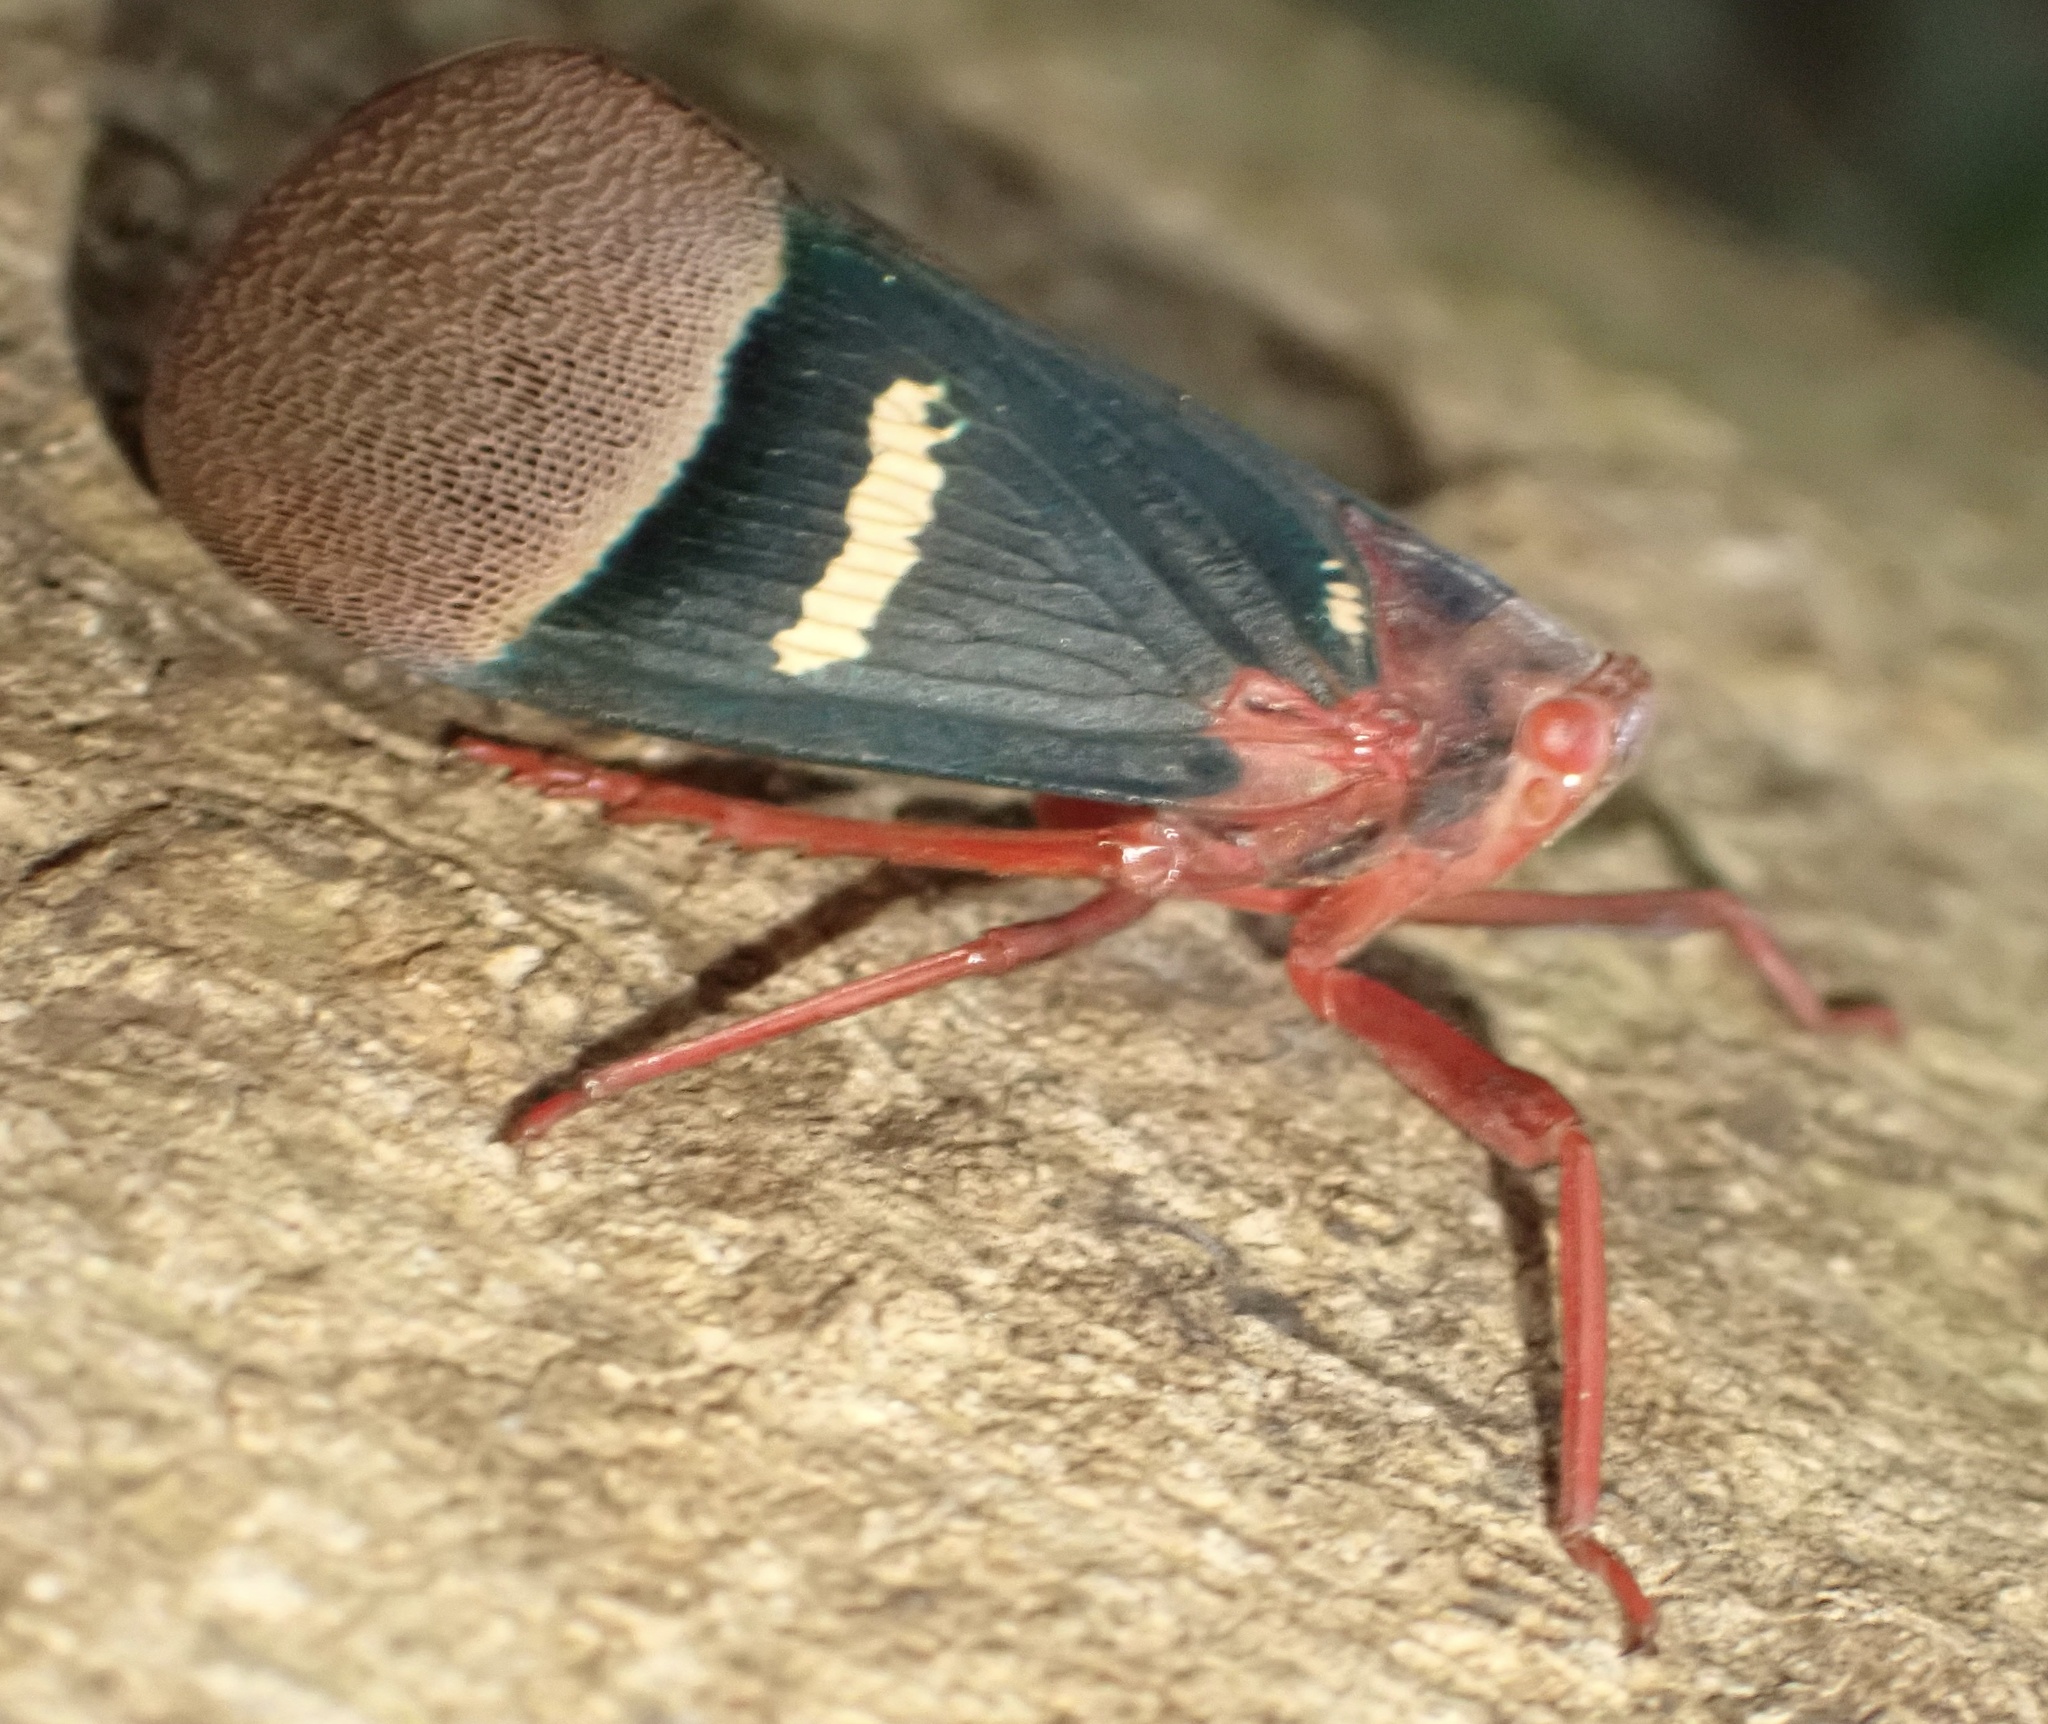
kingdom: Animalia
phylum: Arthropoda
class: Insecta
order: Hemiptera
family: Fulgoridae
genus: Scamandra
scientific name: Scamandra thetis
